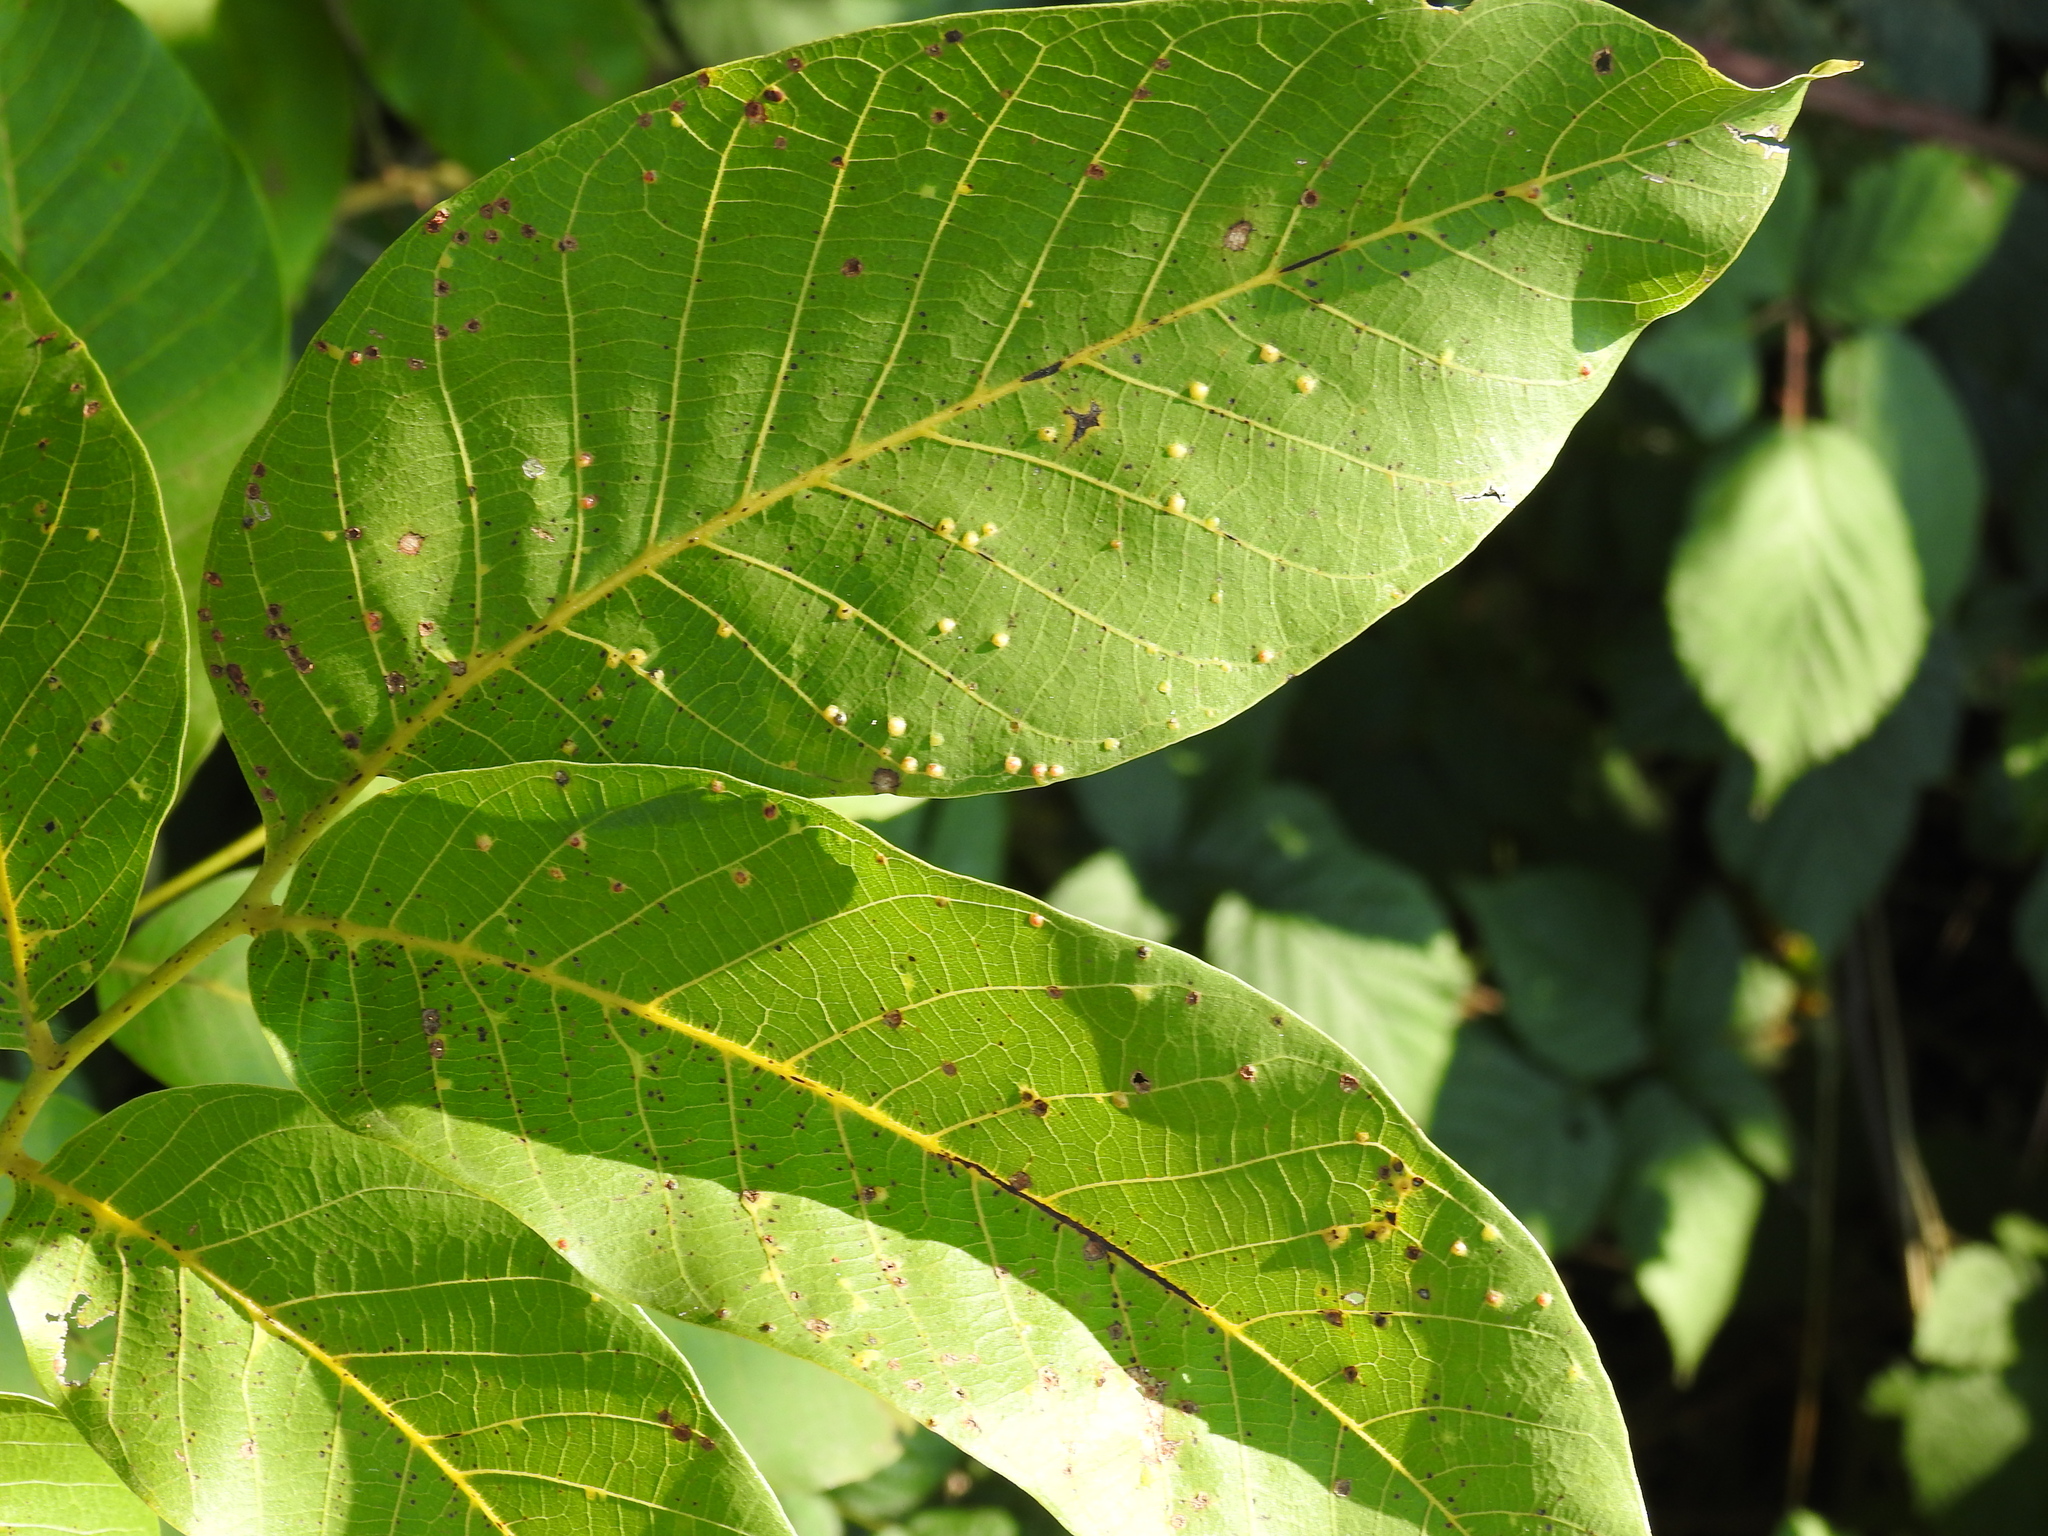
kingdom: Animalia
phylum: Arthropoda
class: Arachnida
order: Trombidiformes
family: Eriophyidae
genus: Aceria
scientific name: Aceria tristriata
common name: Persian walnut leaf blister mite
